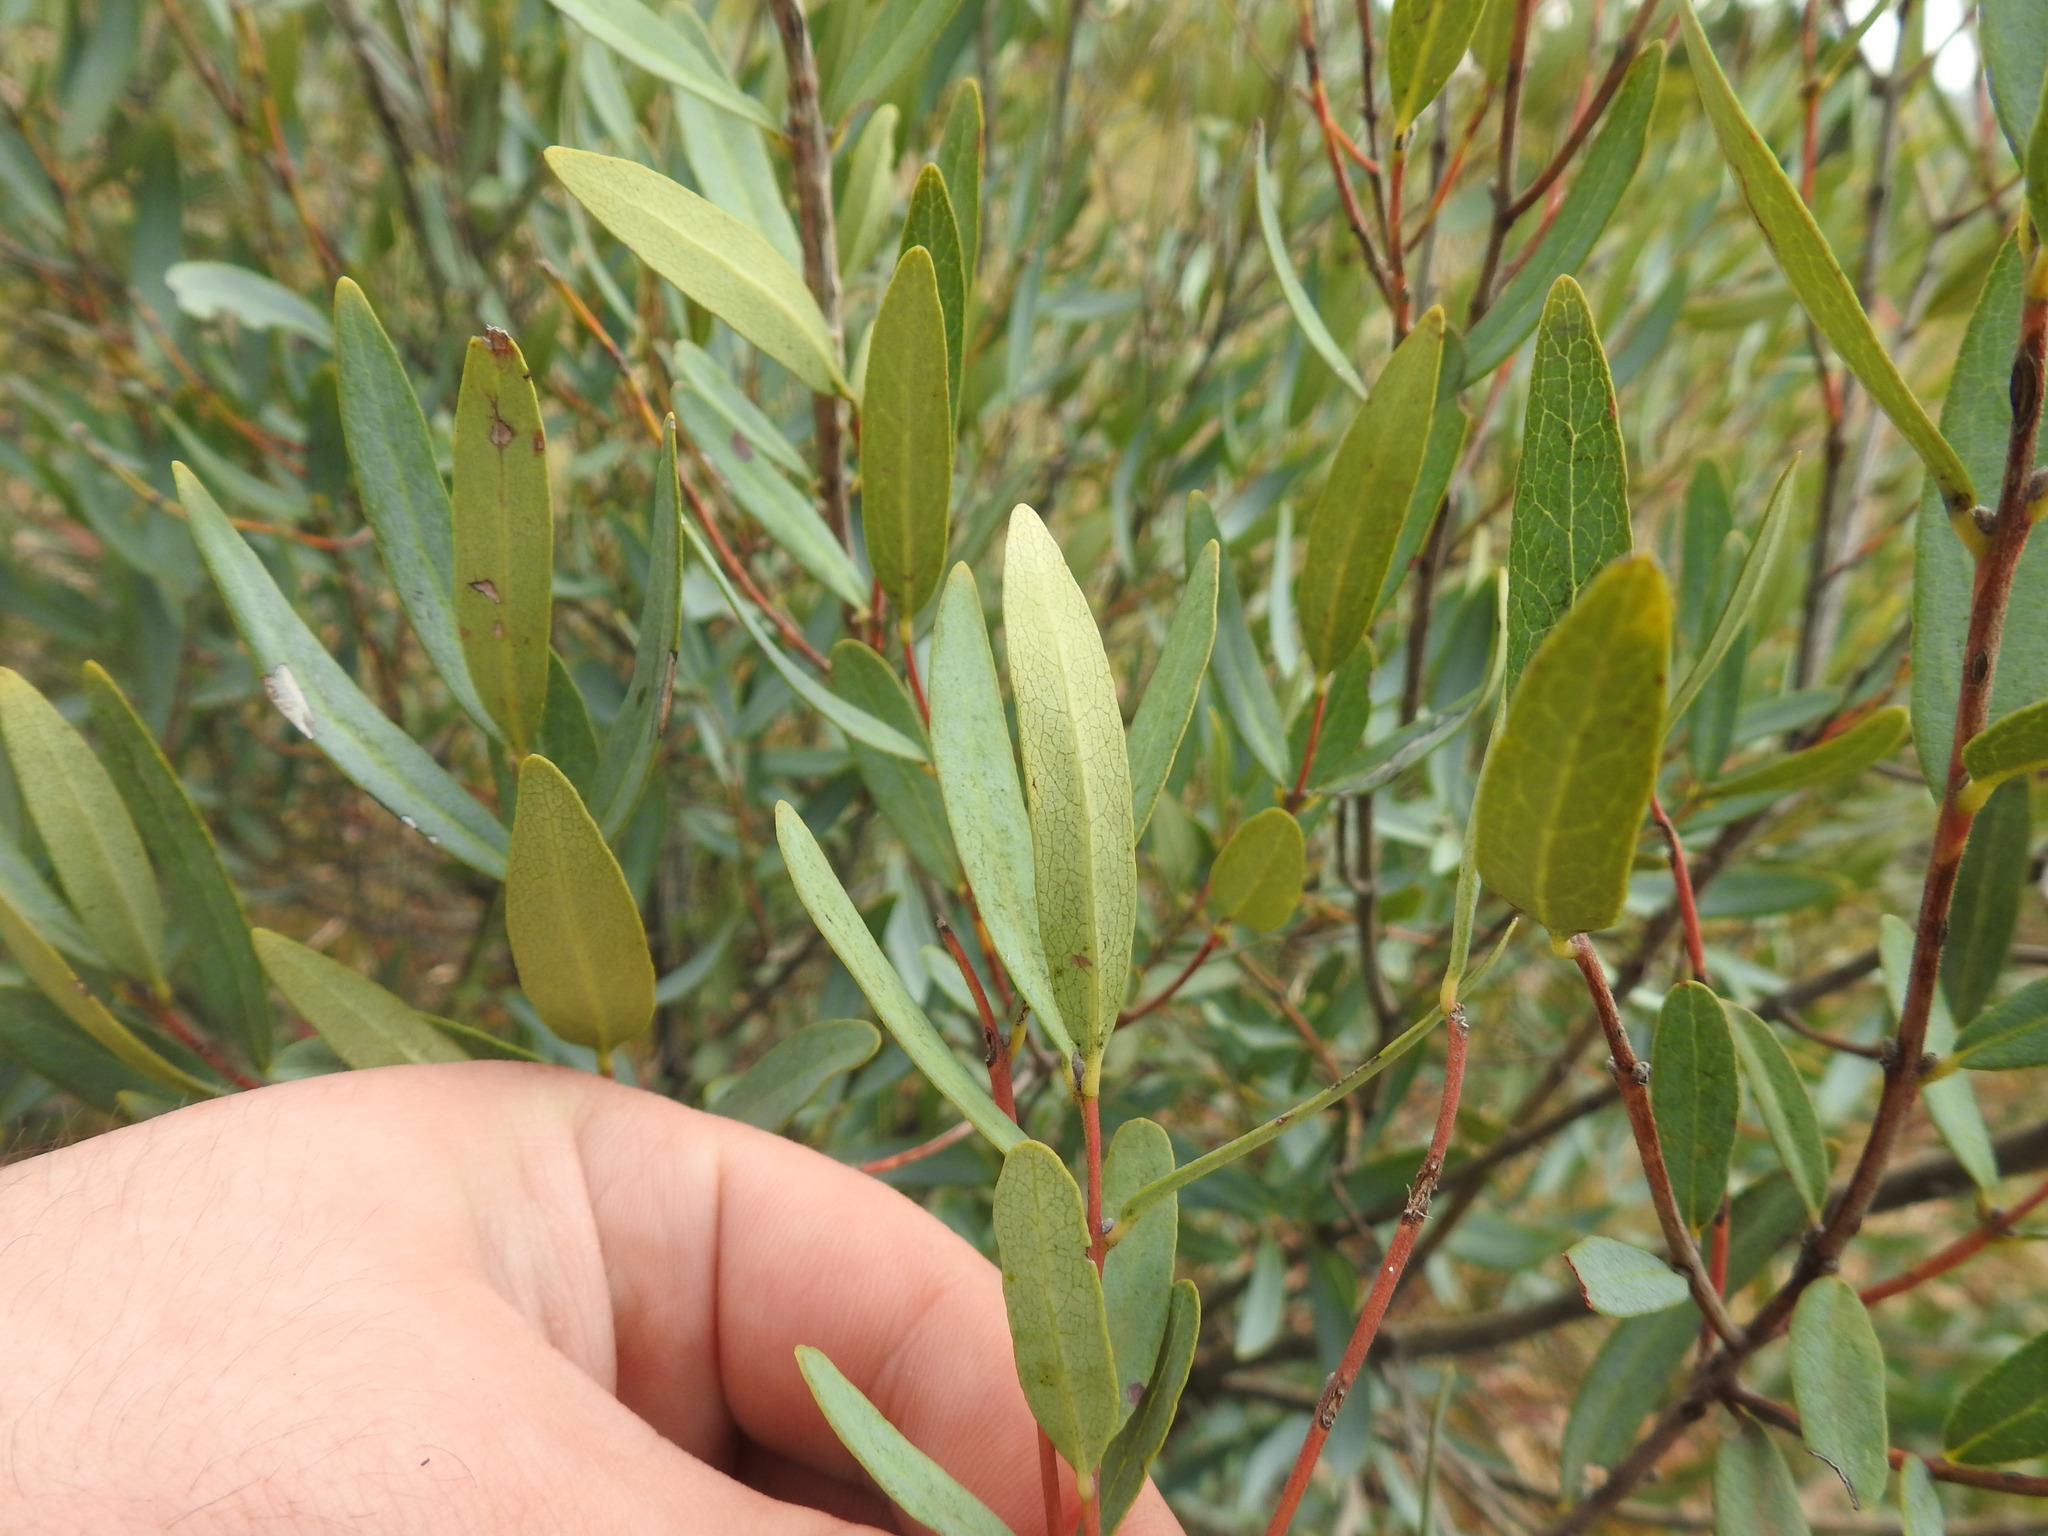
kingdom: Plantae
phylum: Tracheophyta
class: Magnoliopsida
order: Ericales
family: Ebenaceae
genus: Euclea
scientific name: Euclea crispa
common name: Blue guarri
